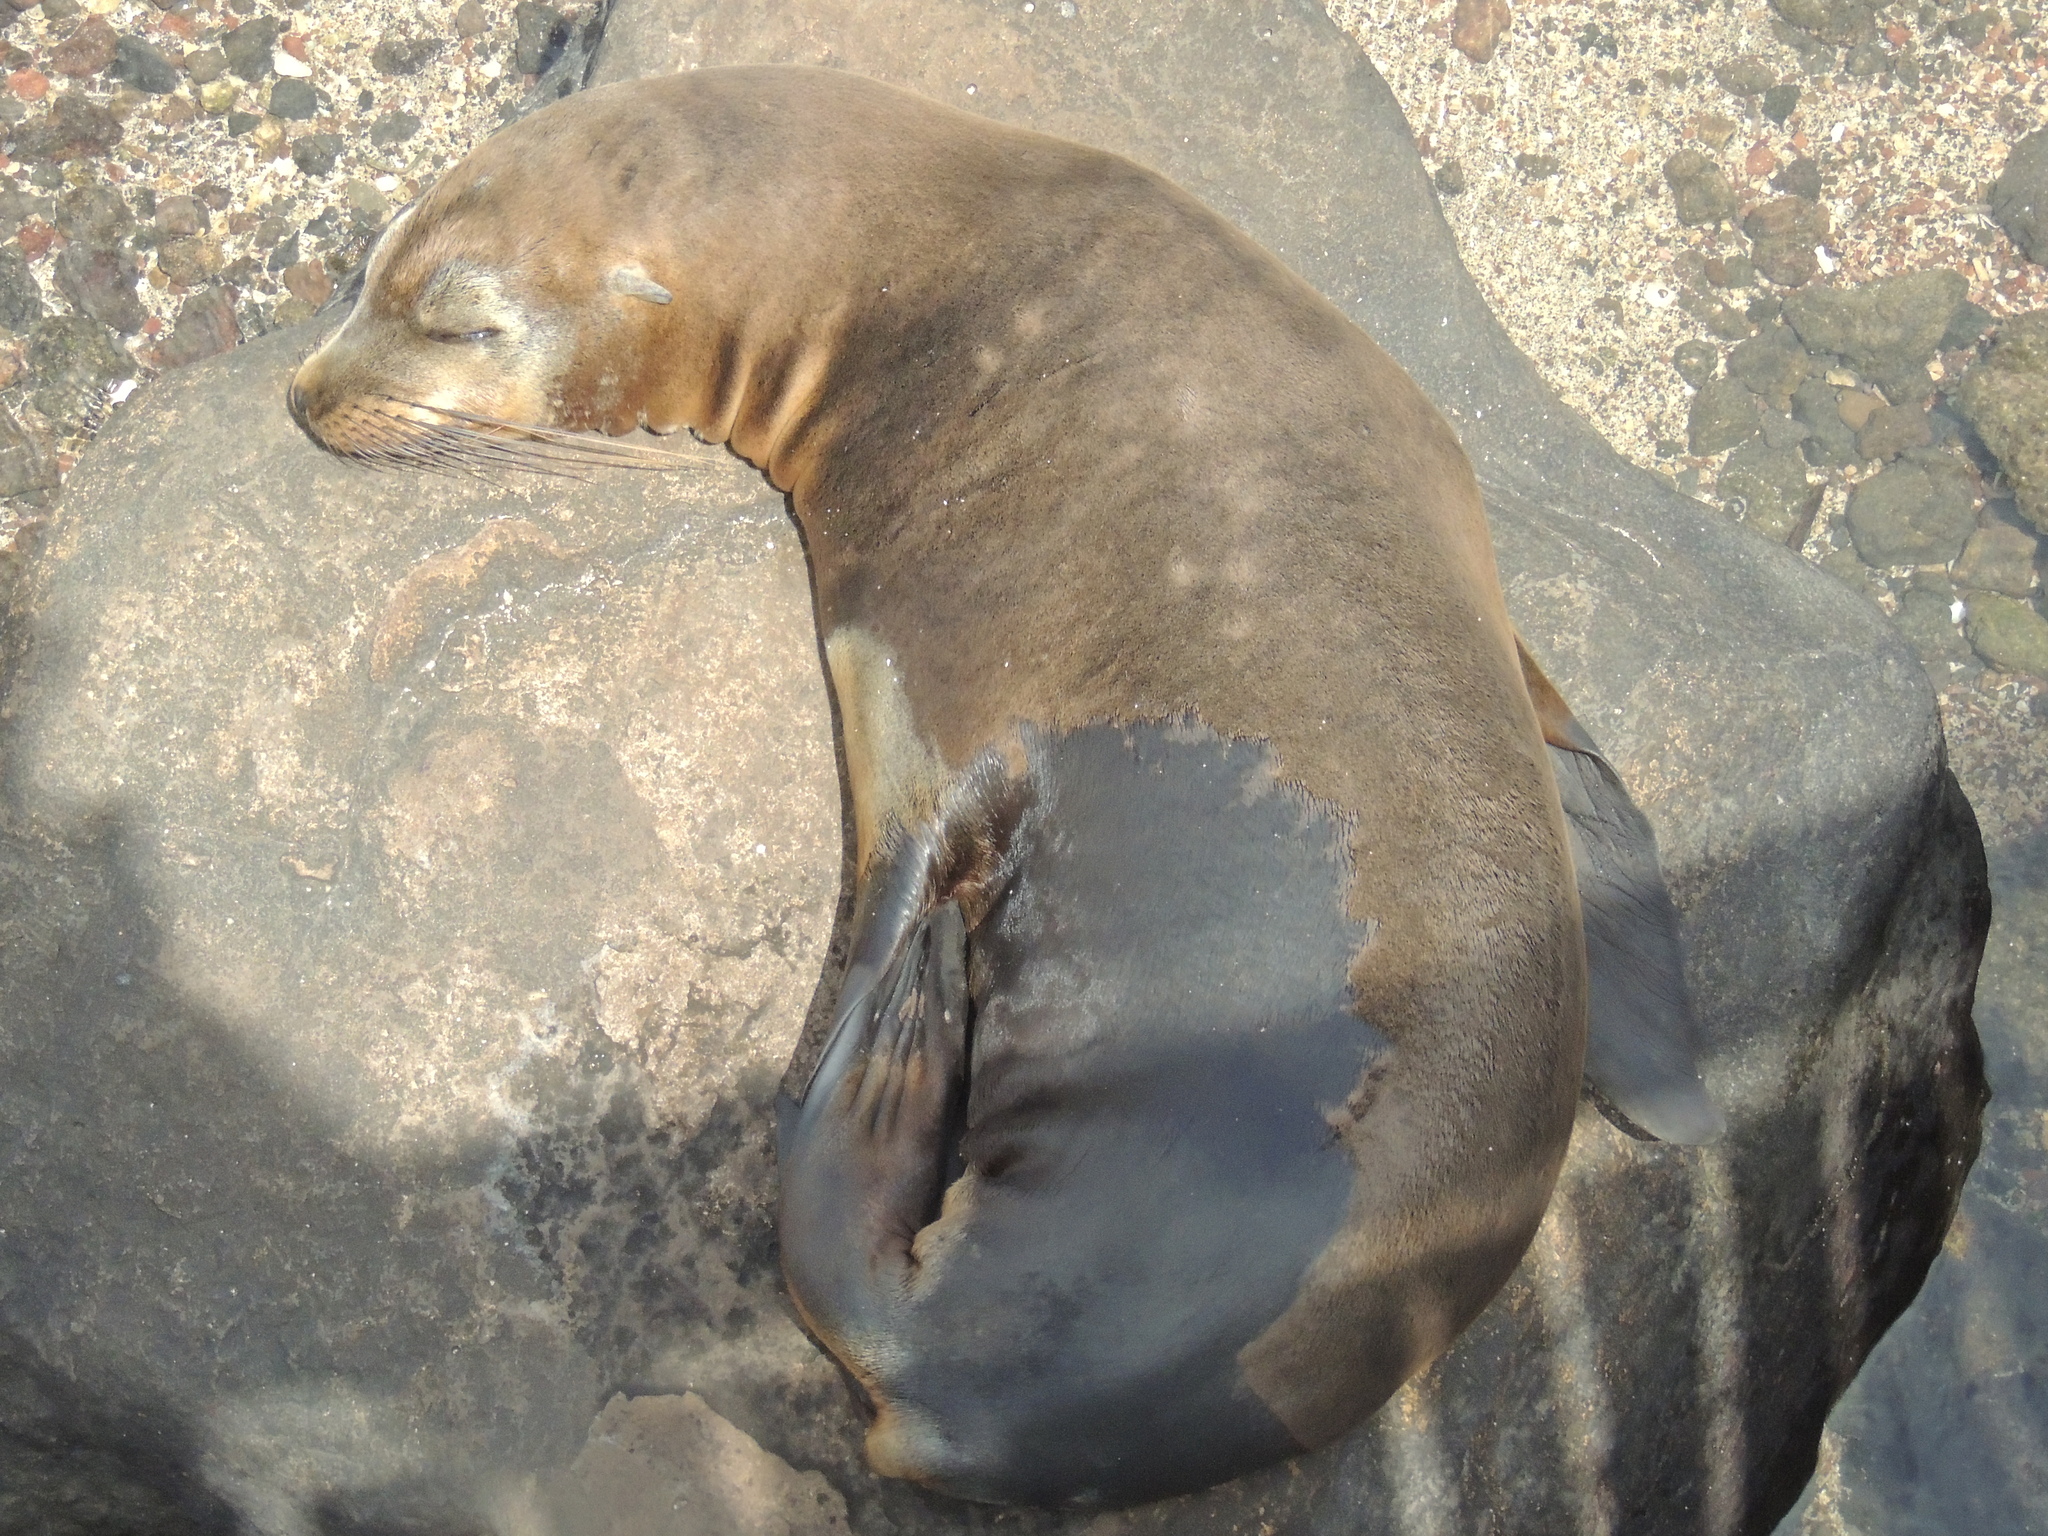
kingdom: Animalia
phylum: Chordata
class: Mammalia
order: Carnivora
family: Otariidae
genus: Zalophus
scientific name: Zalophus wollebaeki
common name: Galapagos sea lion
